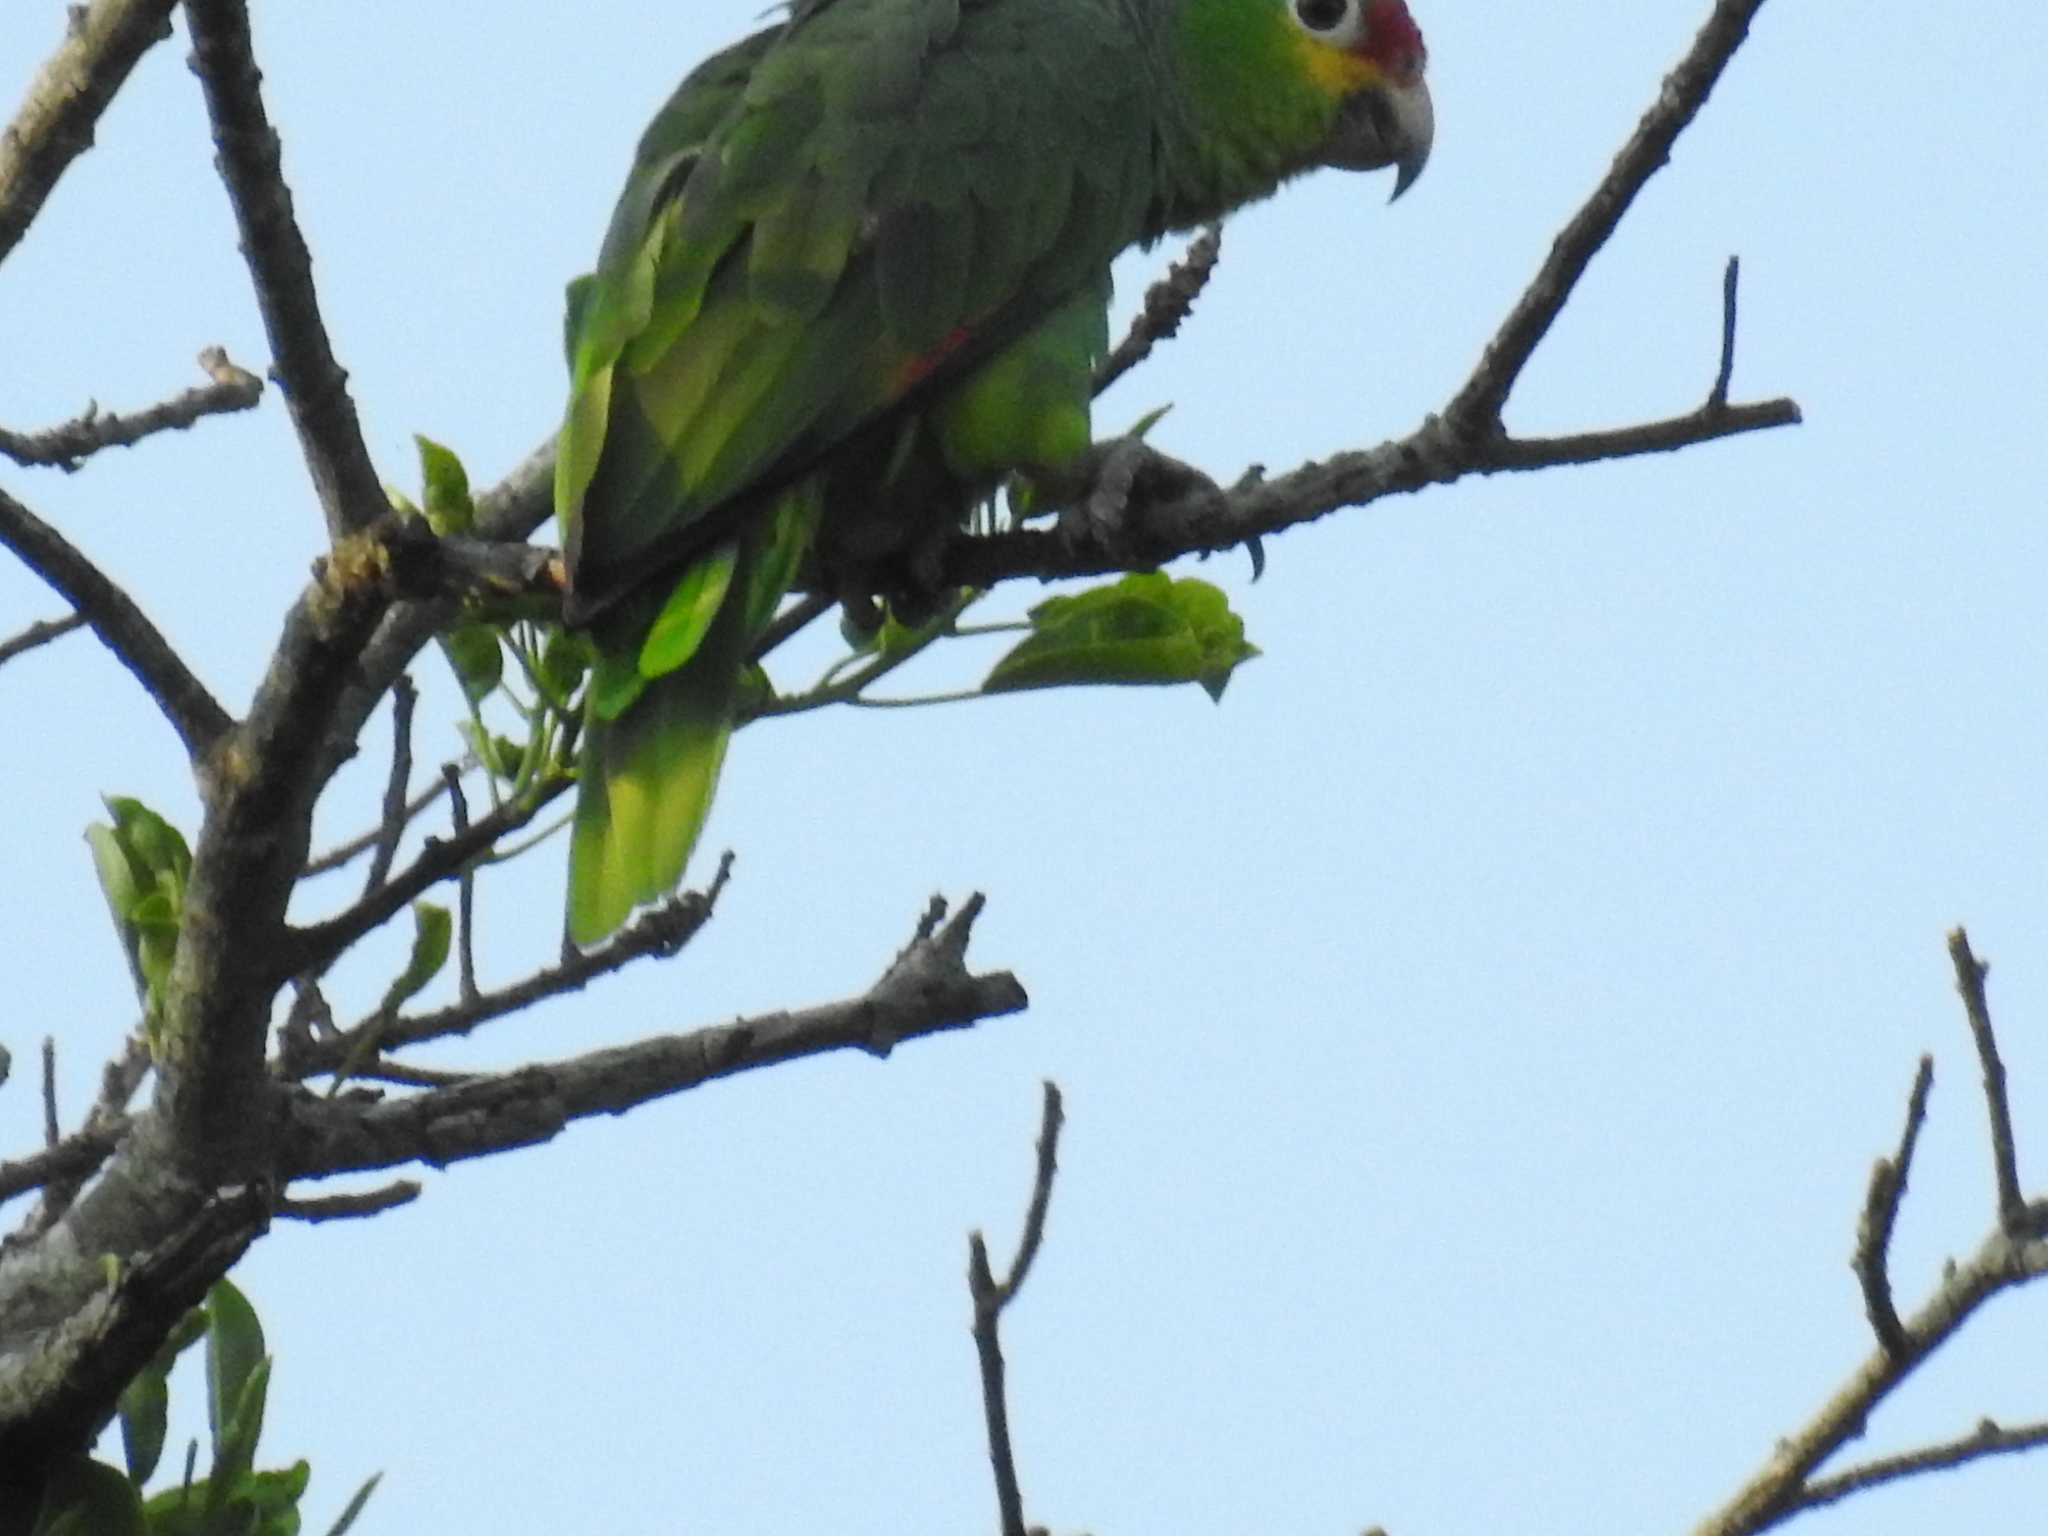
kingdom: Animalia
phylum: Chordata
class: Aves
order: Psittaciformes
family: Psittacidae
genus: Amazona
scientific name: Amazona autumnalis
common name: Red-lored amazon
